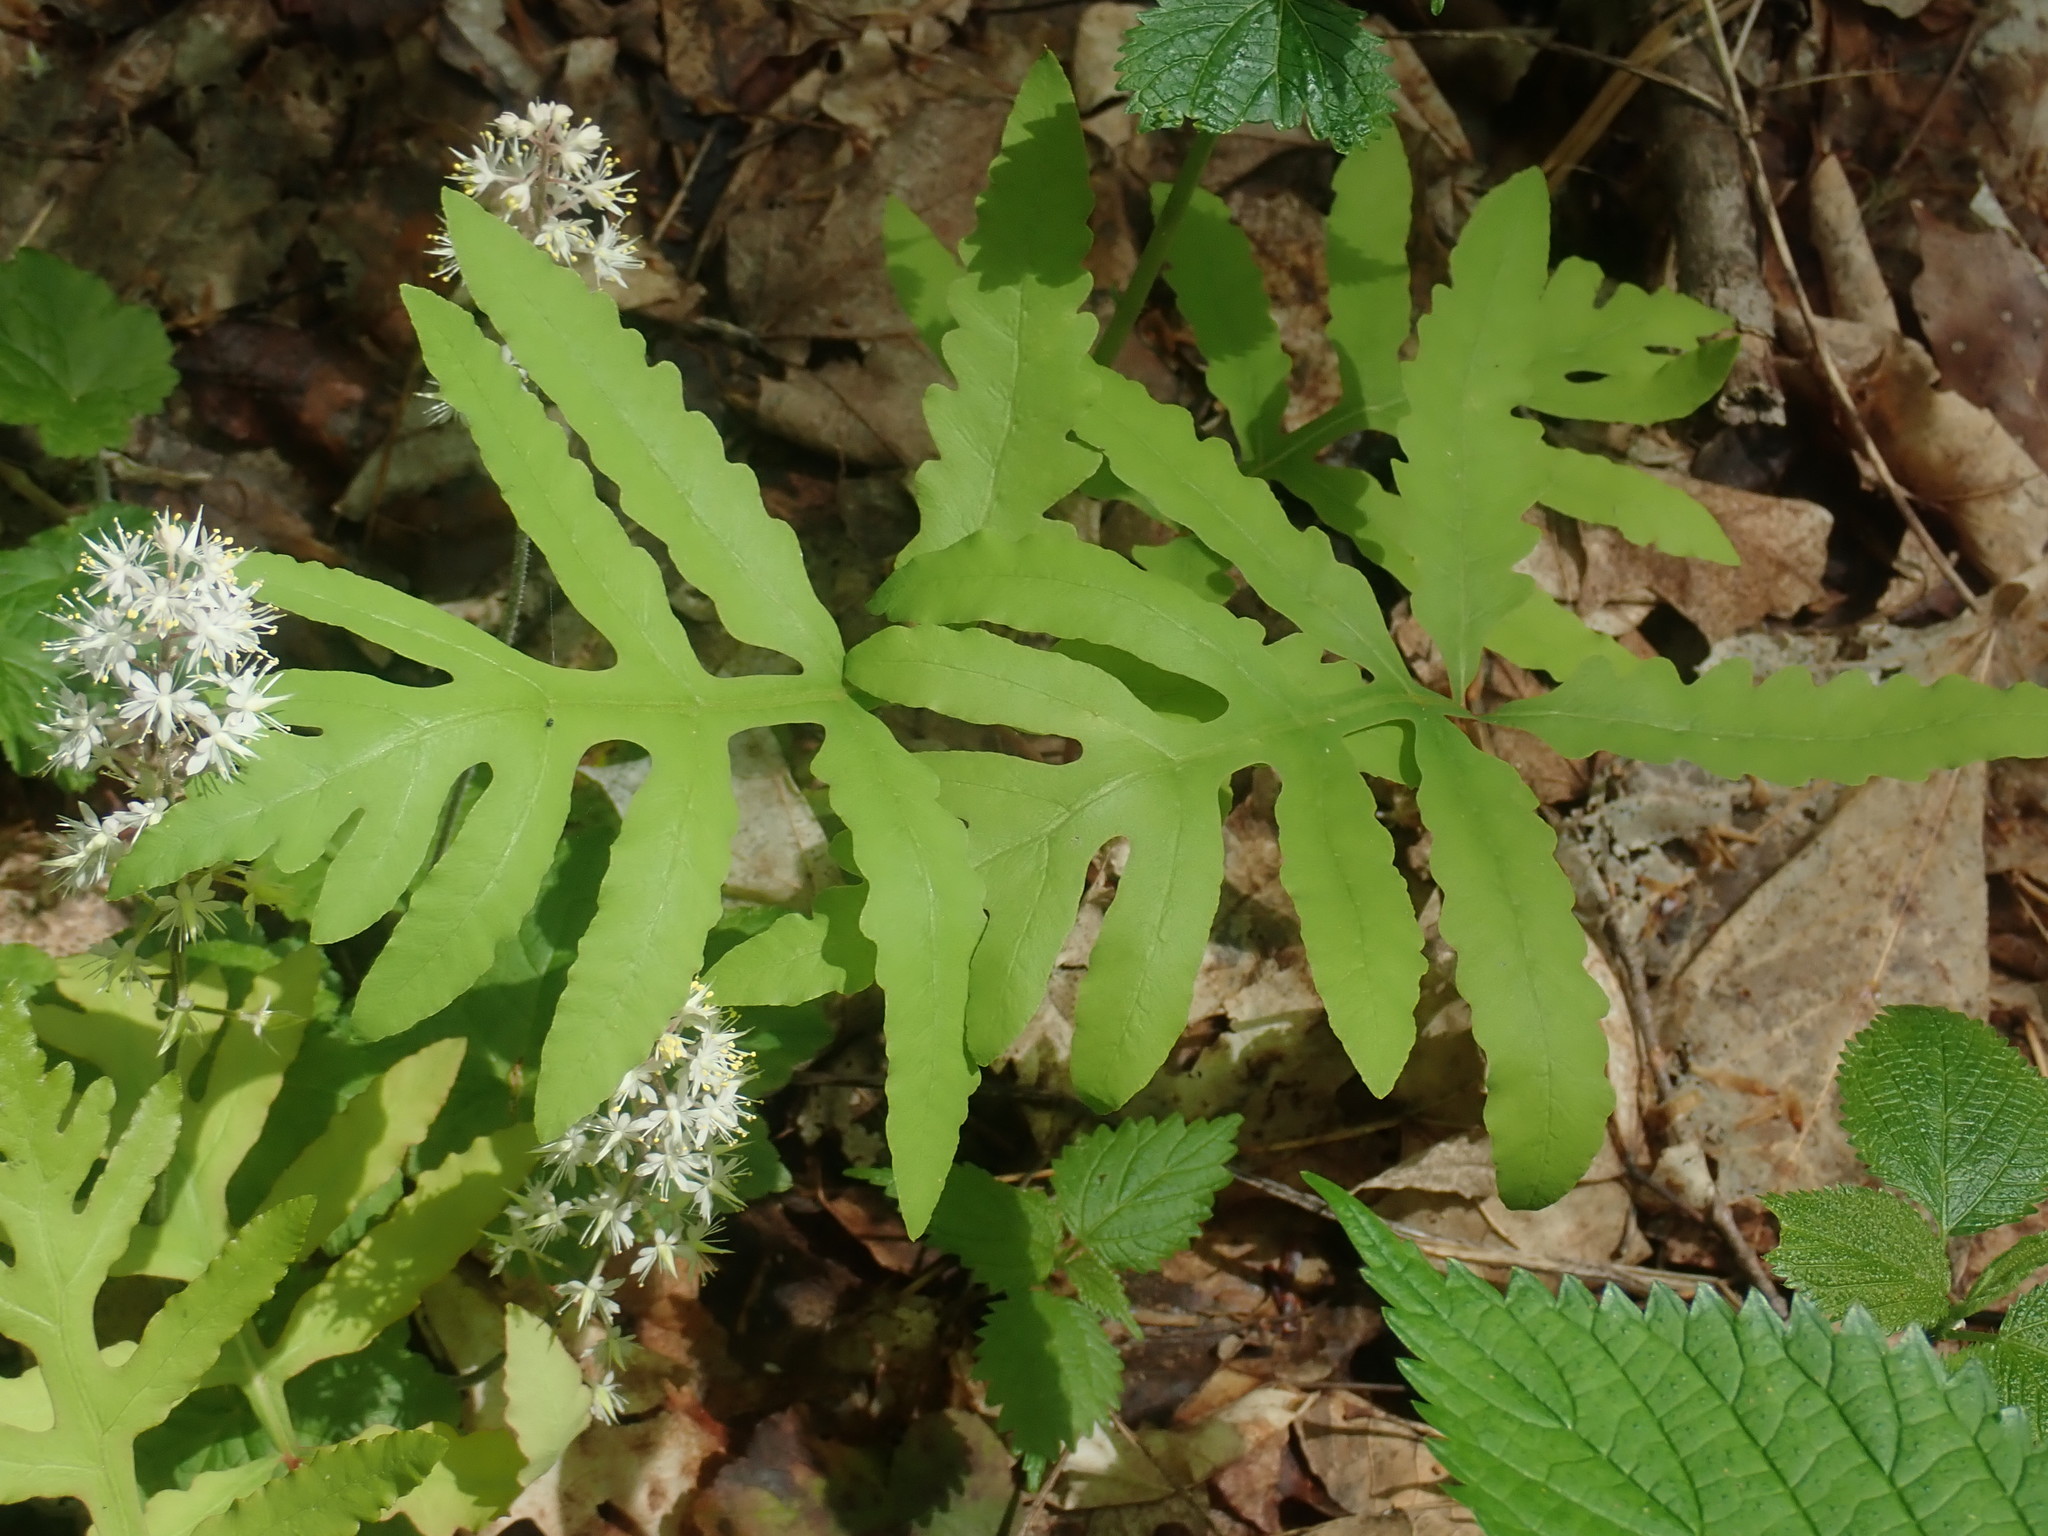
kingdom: Plantae
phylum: Tracheophyta
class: Polypodiopsida
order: Polypodiales
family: Onocleaceae
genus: Onoclea
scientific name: Onoclea sensibilis
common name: Sensitive fern
